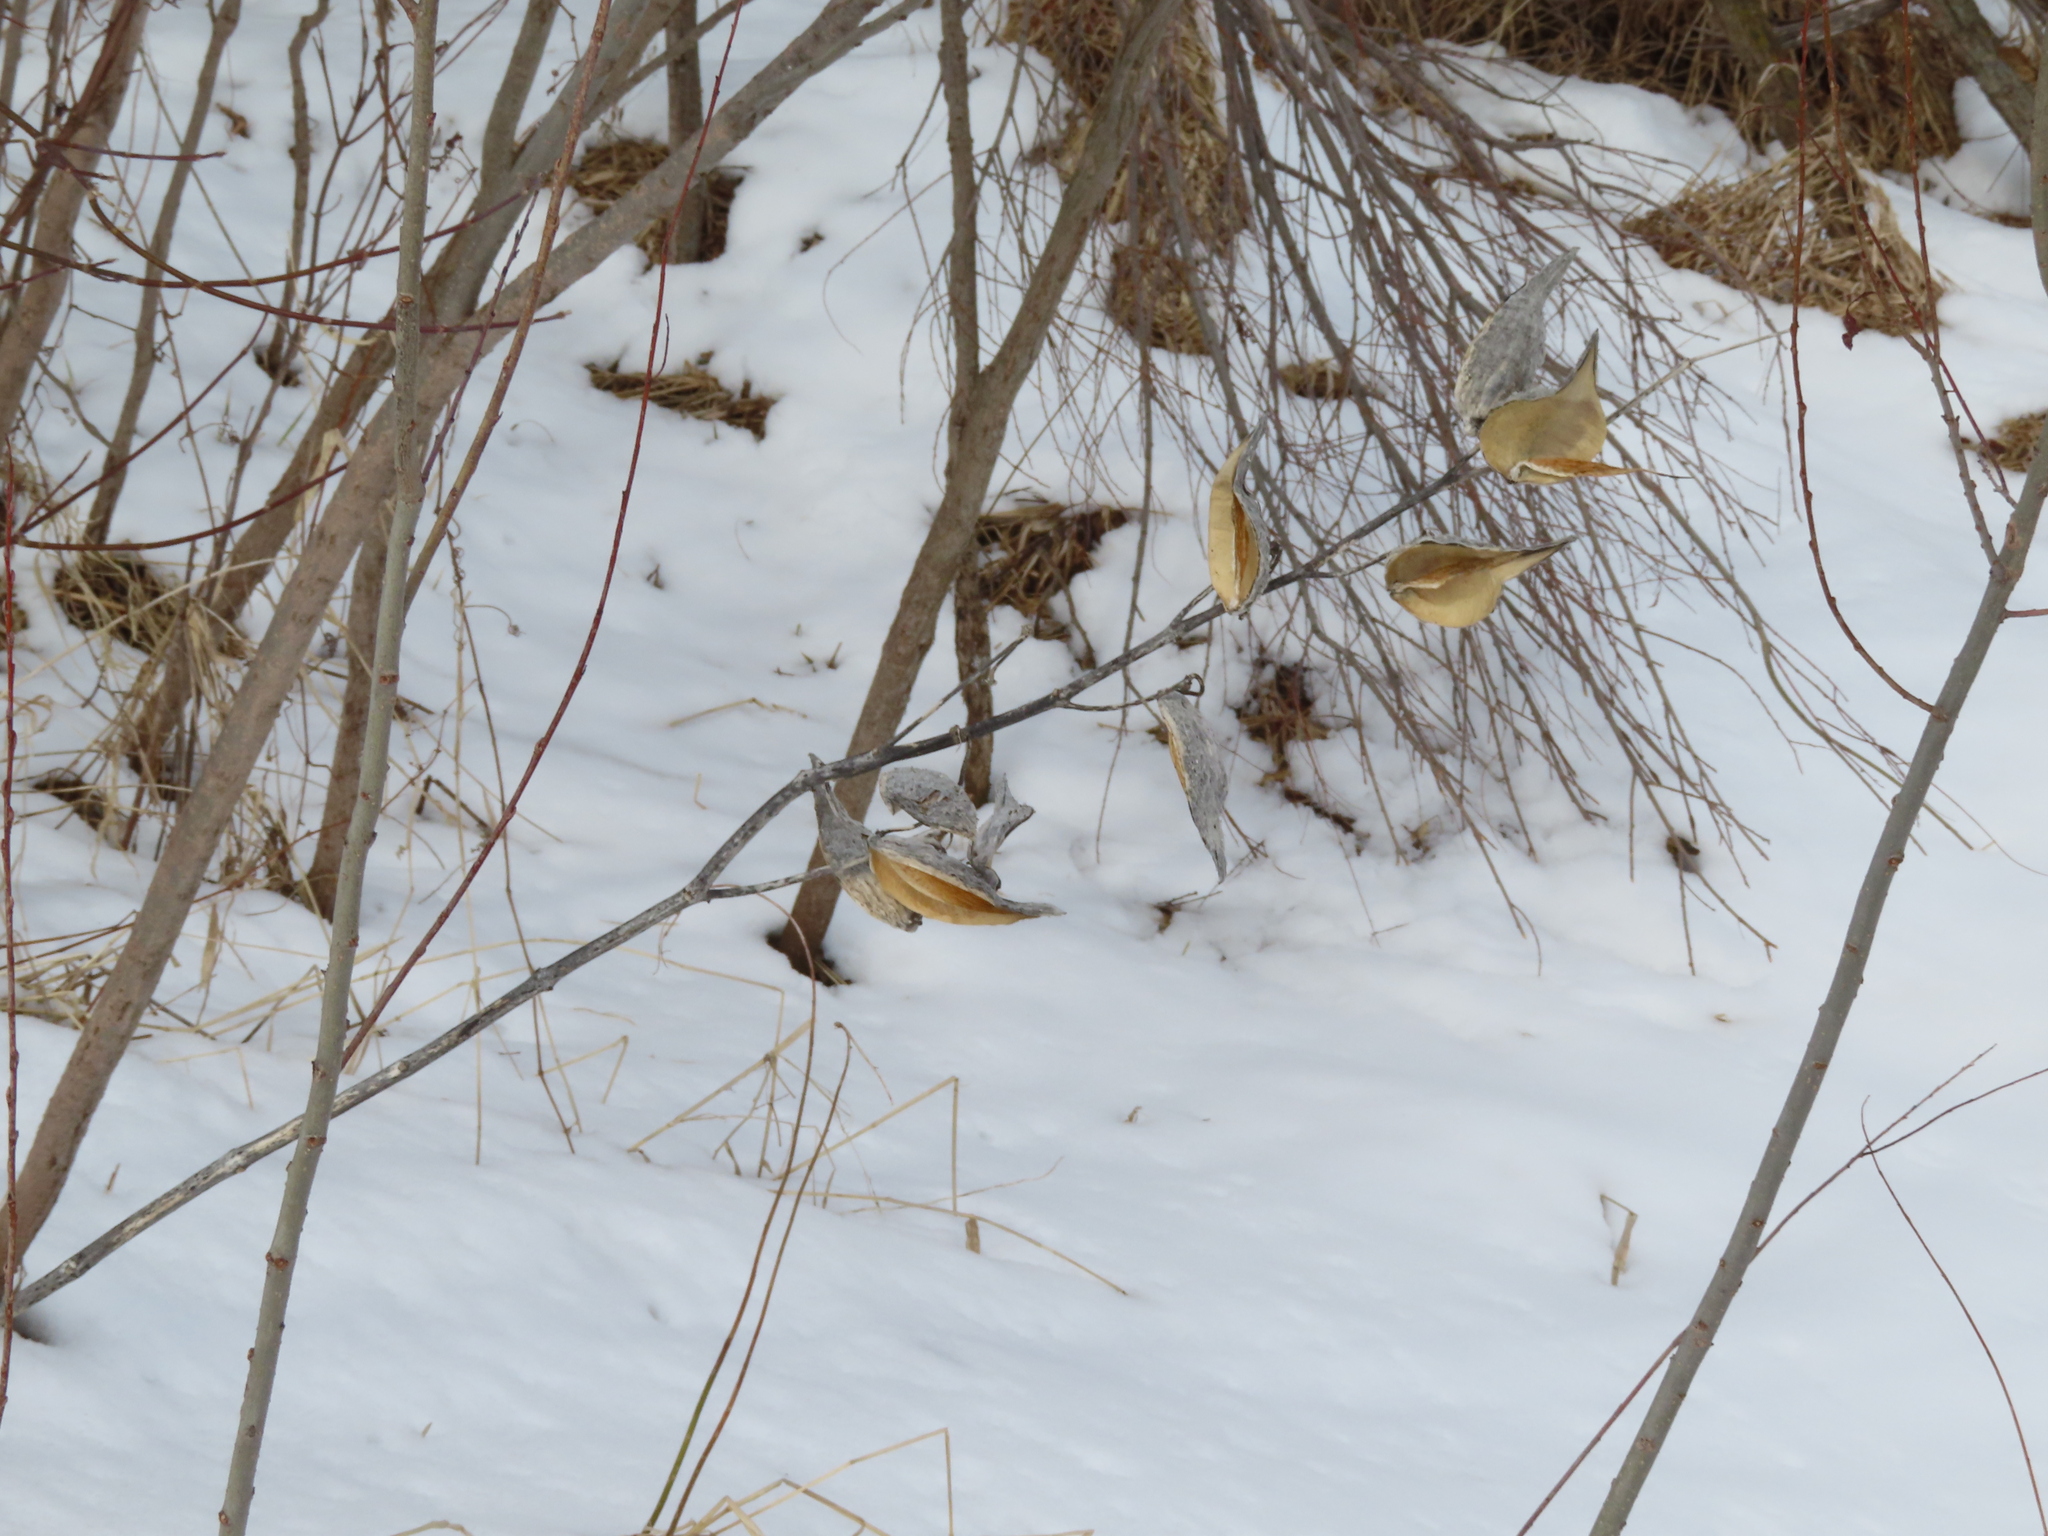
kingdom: Plantae
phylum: Tracheophyta
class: Magnoliopsida
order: Gentianales
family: Apocynaceae
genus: Asclepias
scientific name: Asclepias syriaca
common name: Common milkweed
